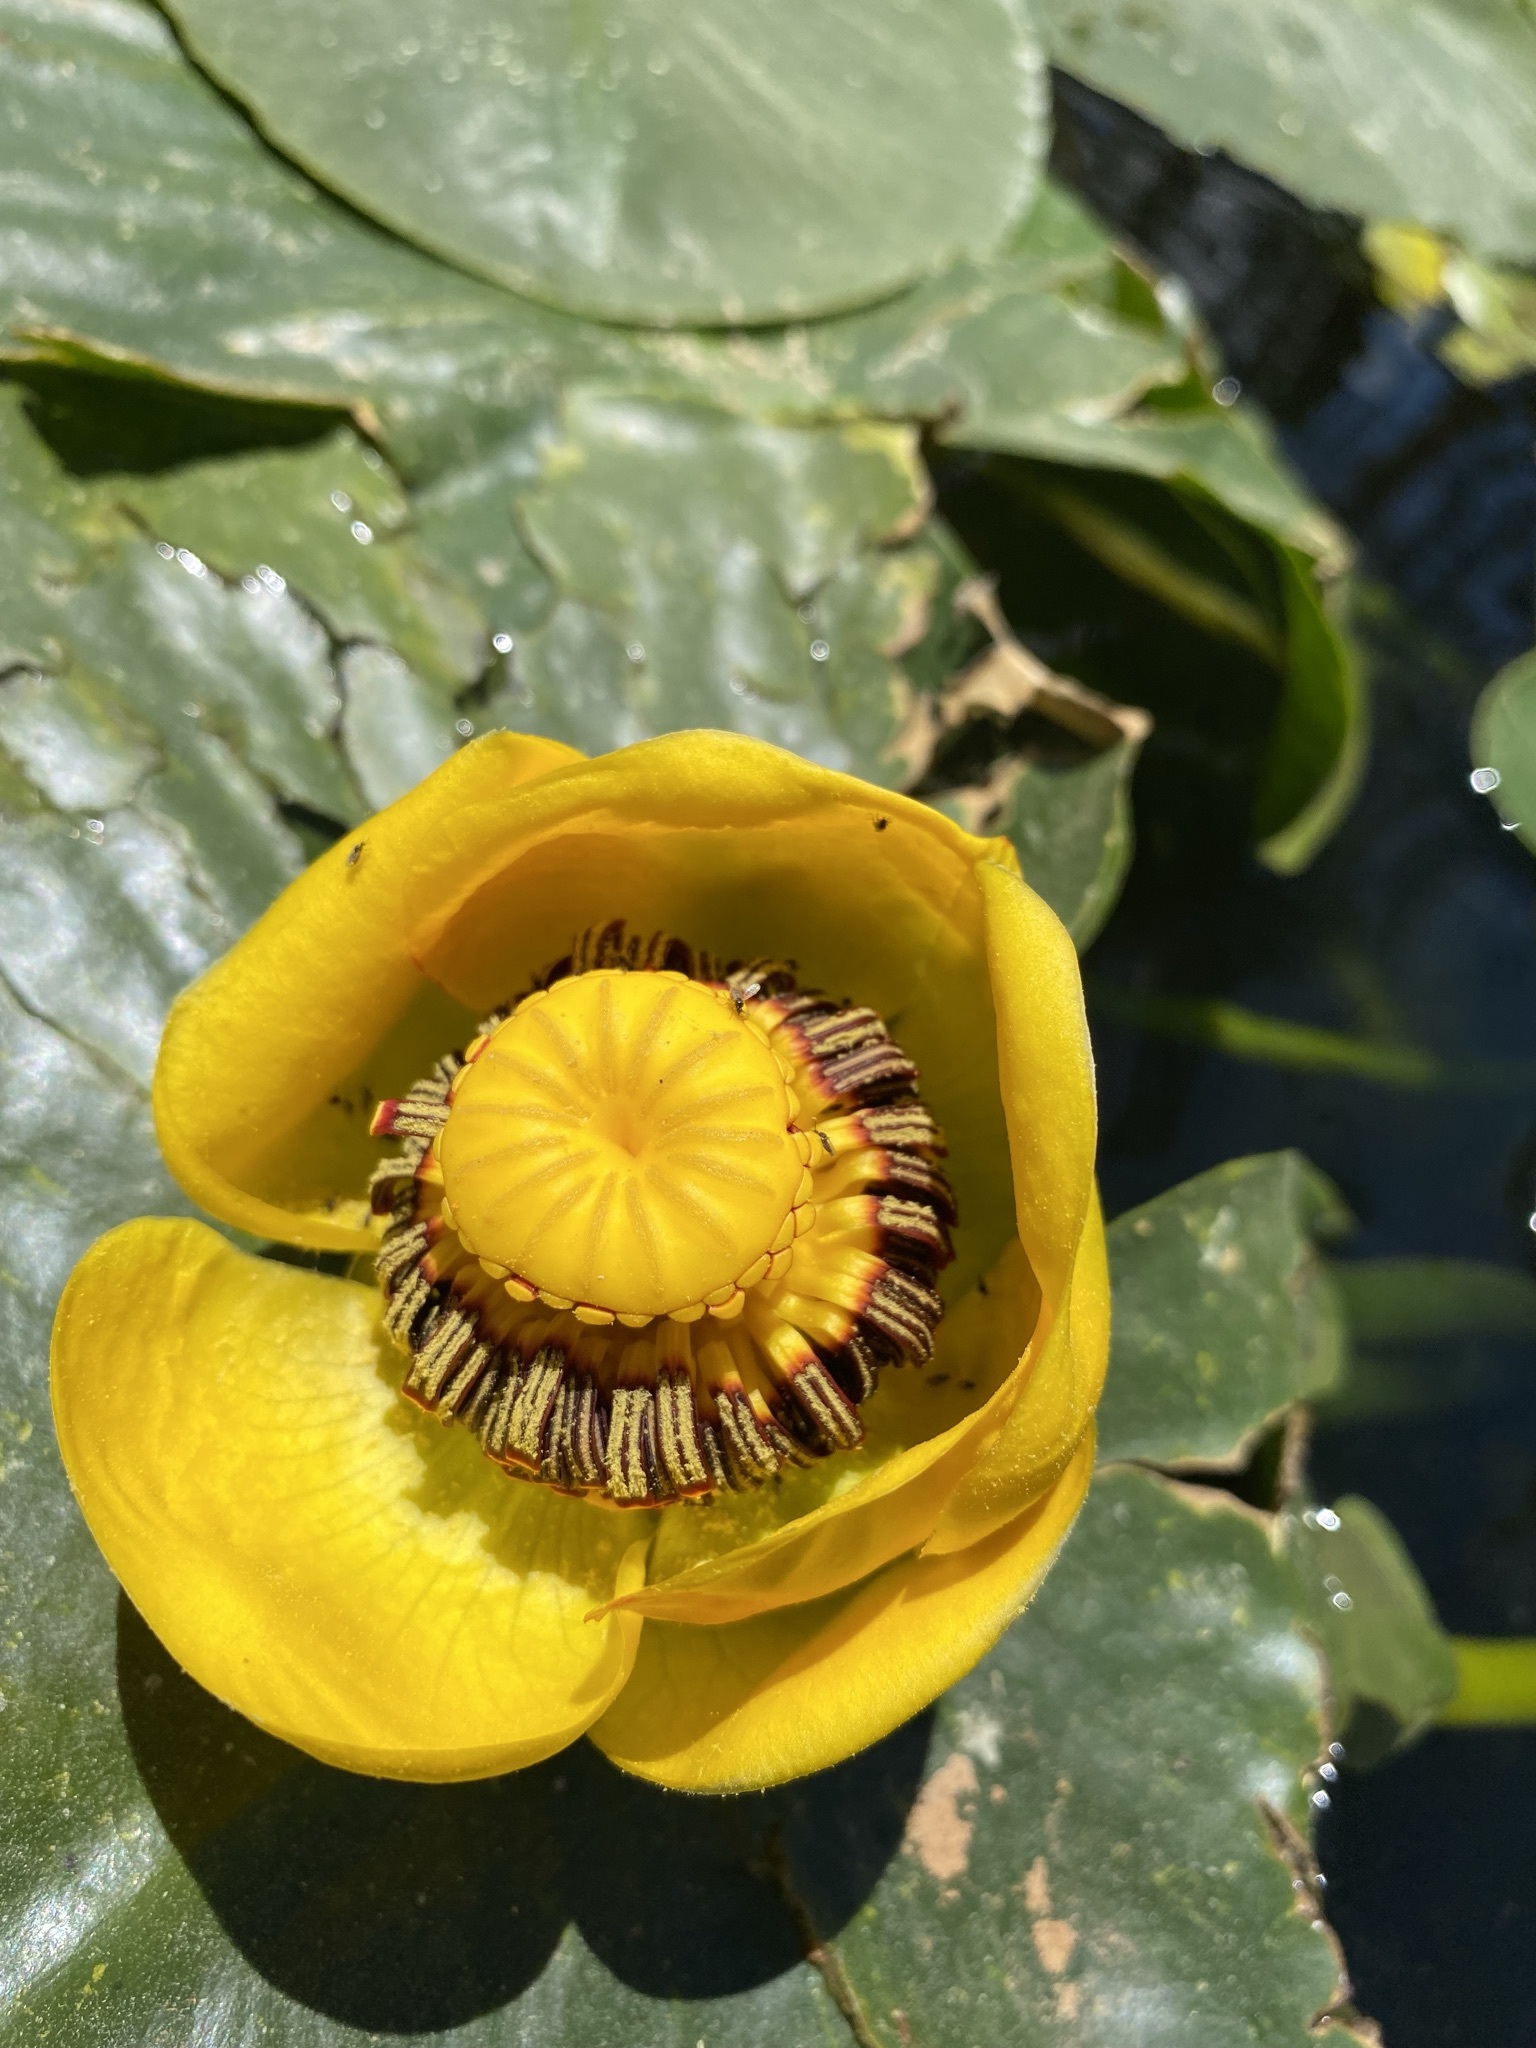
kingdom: Plantae
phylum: Tracheophyta
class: Magnoliopsida
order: Nymphaeales
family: Nymphaeaceae
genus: Nuphar
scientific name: Nuphar polysepala
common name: Rocky mountain cow-lily
